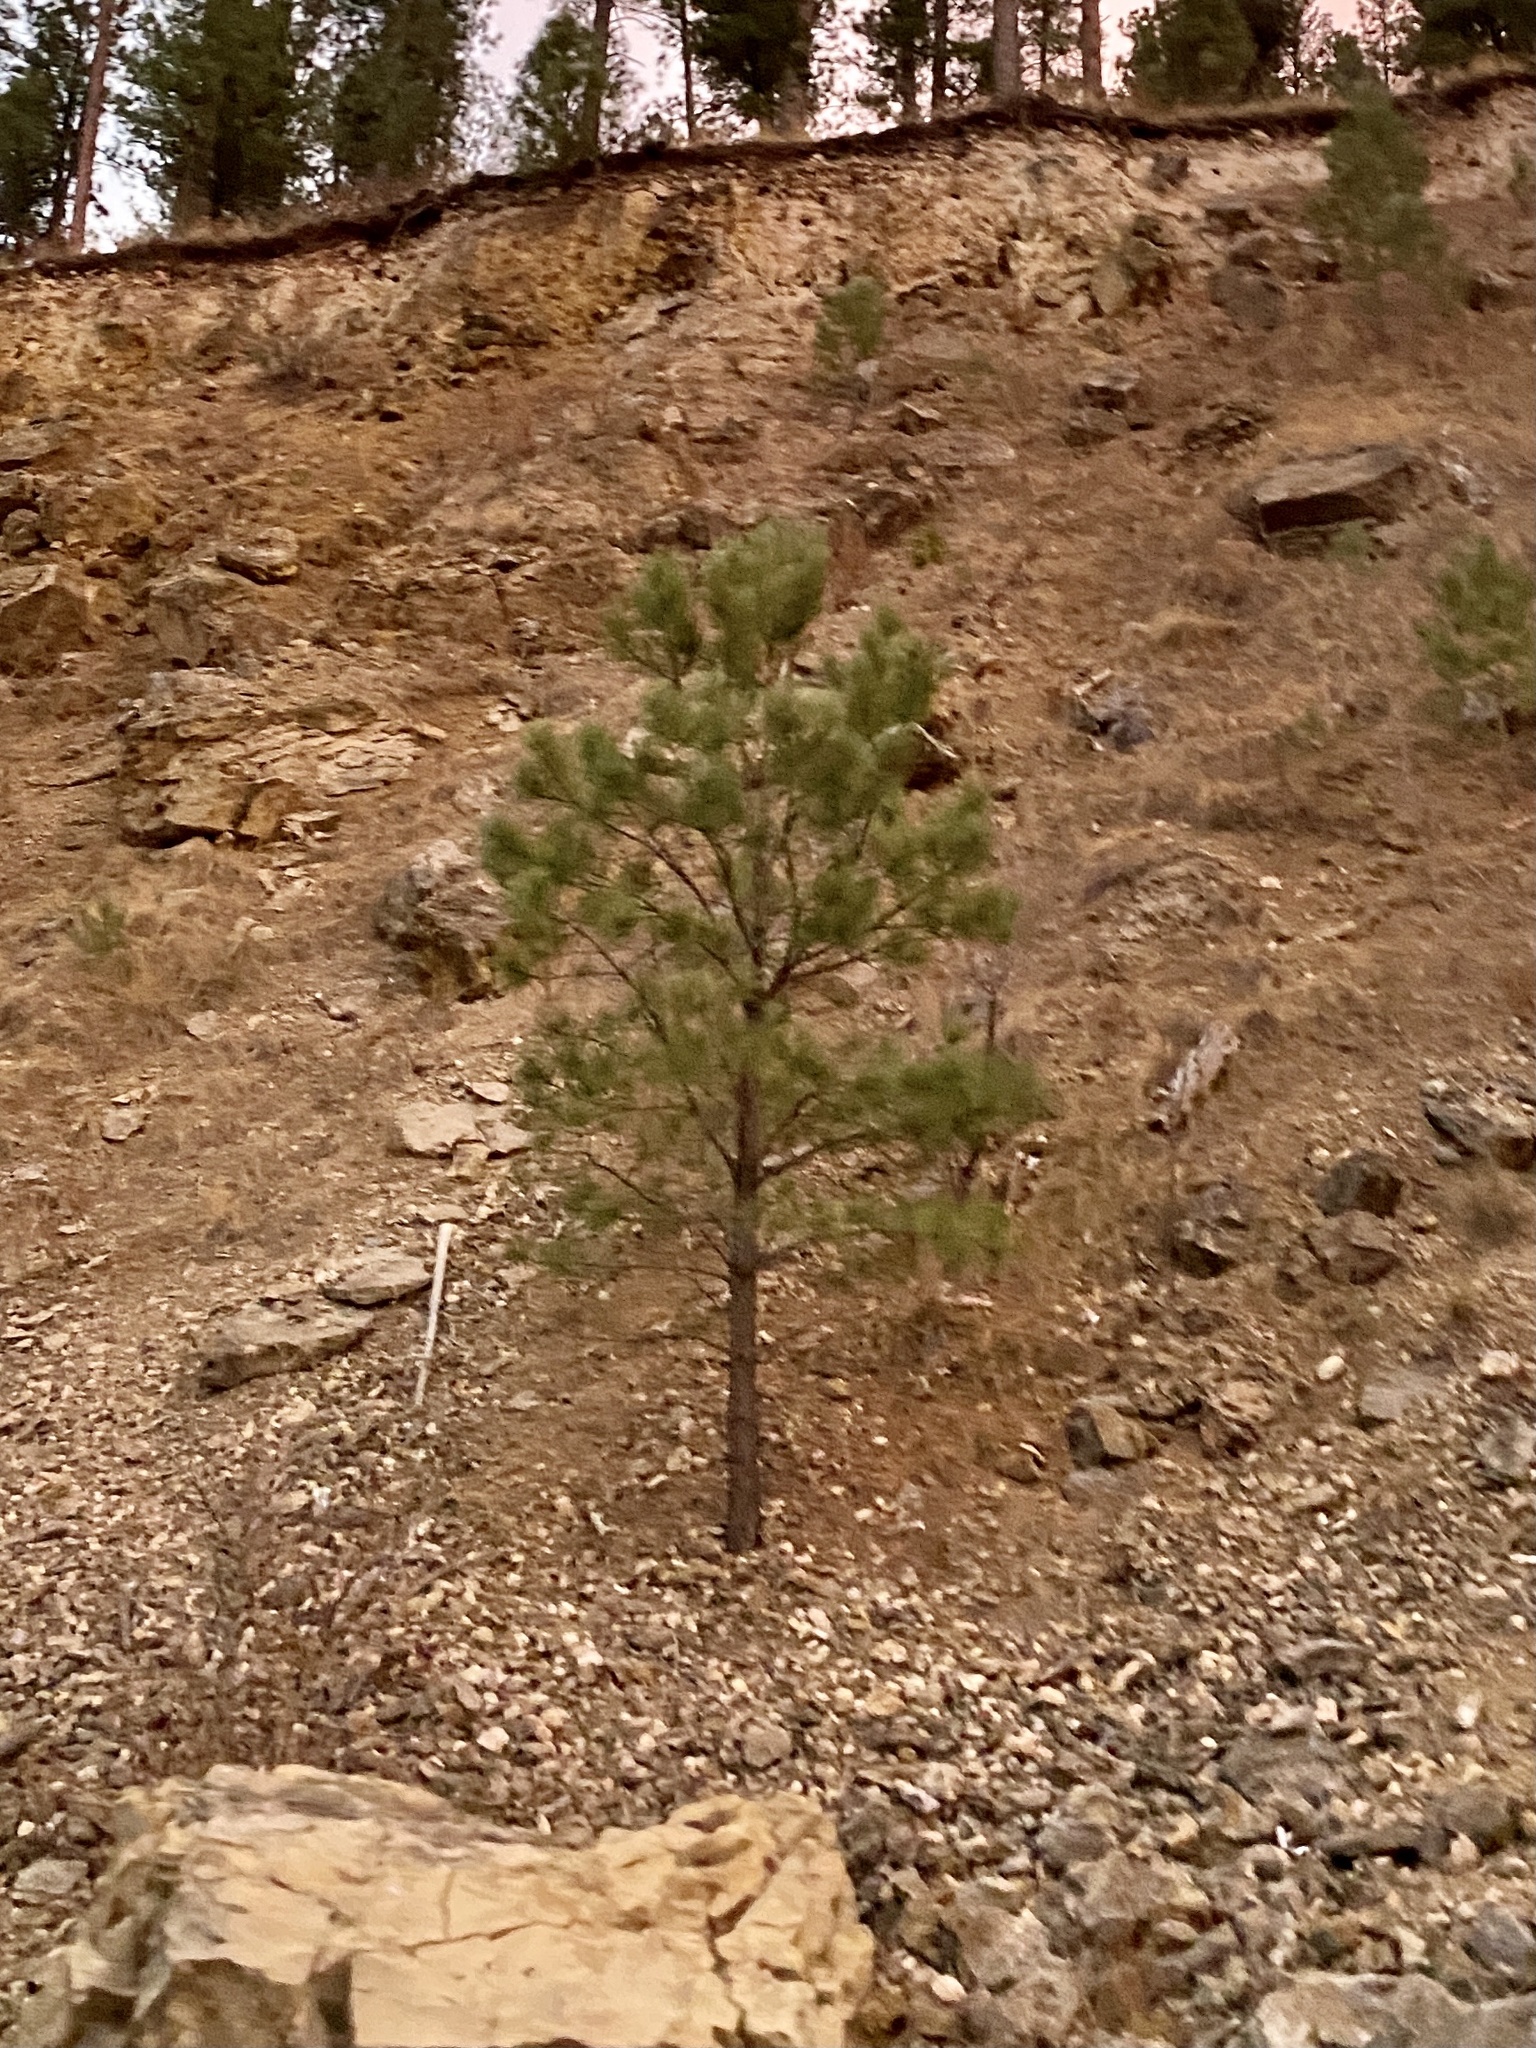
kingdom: Plantae
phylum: Tracheophyta
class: Pinopsida
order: Pinales
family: Pinaceae
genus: Pinus
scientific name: Pinus ponderosa
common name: Western yellow-pine
